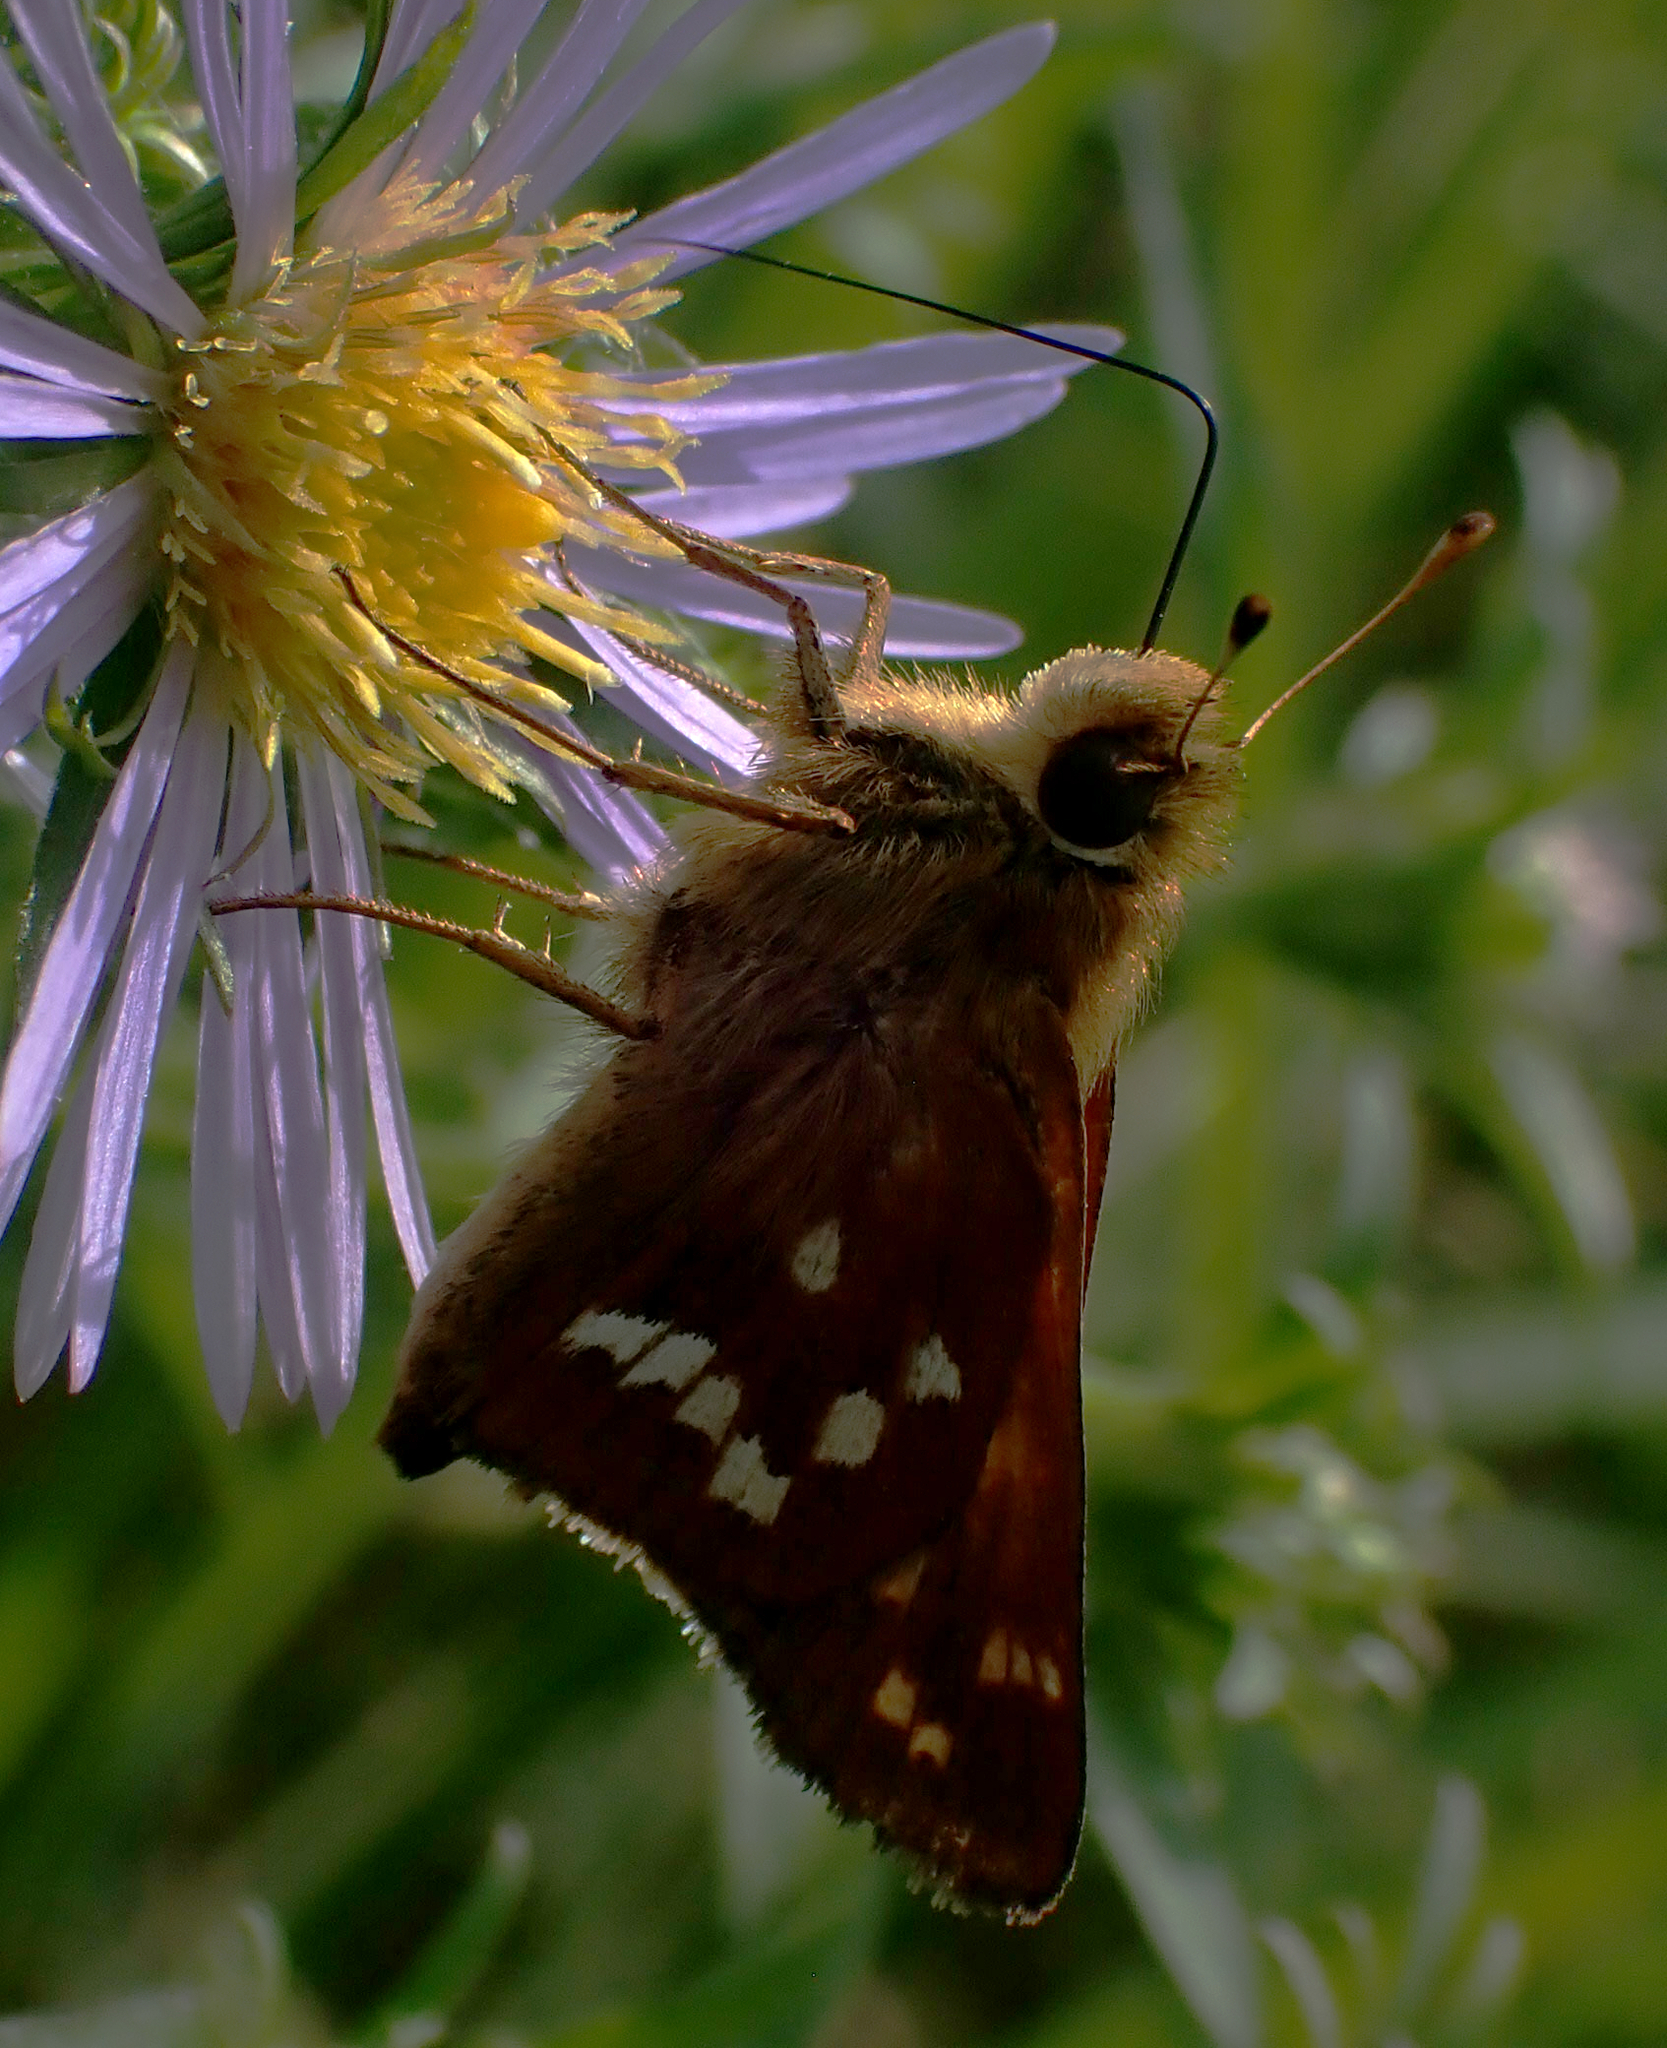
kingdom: Animalia
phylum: Arthropoda
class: Insecta
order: Lepidoptera
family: Hesperiidae
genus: Hesperia
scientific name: Hesperia leonardus
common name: Leonard's skipper
